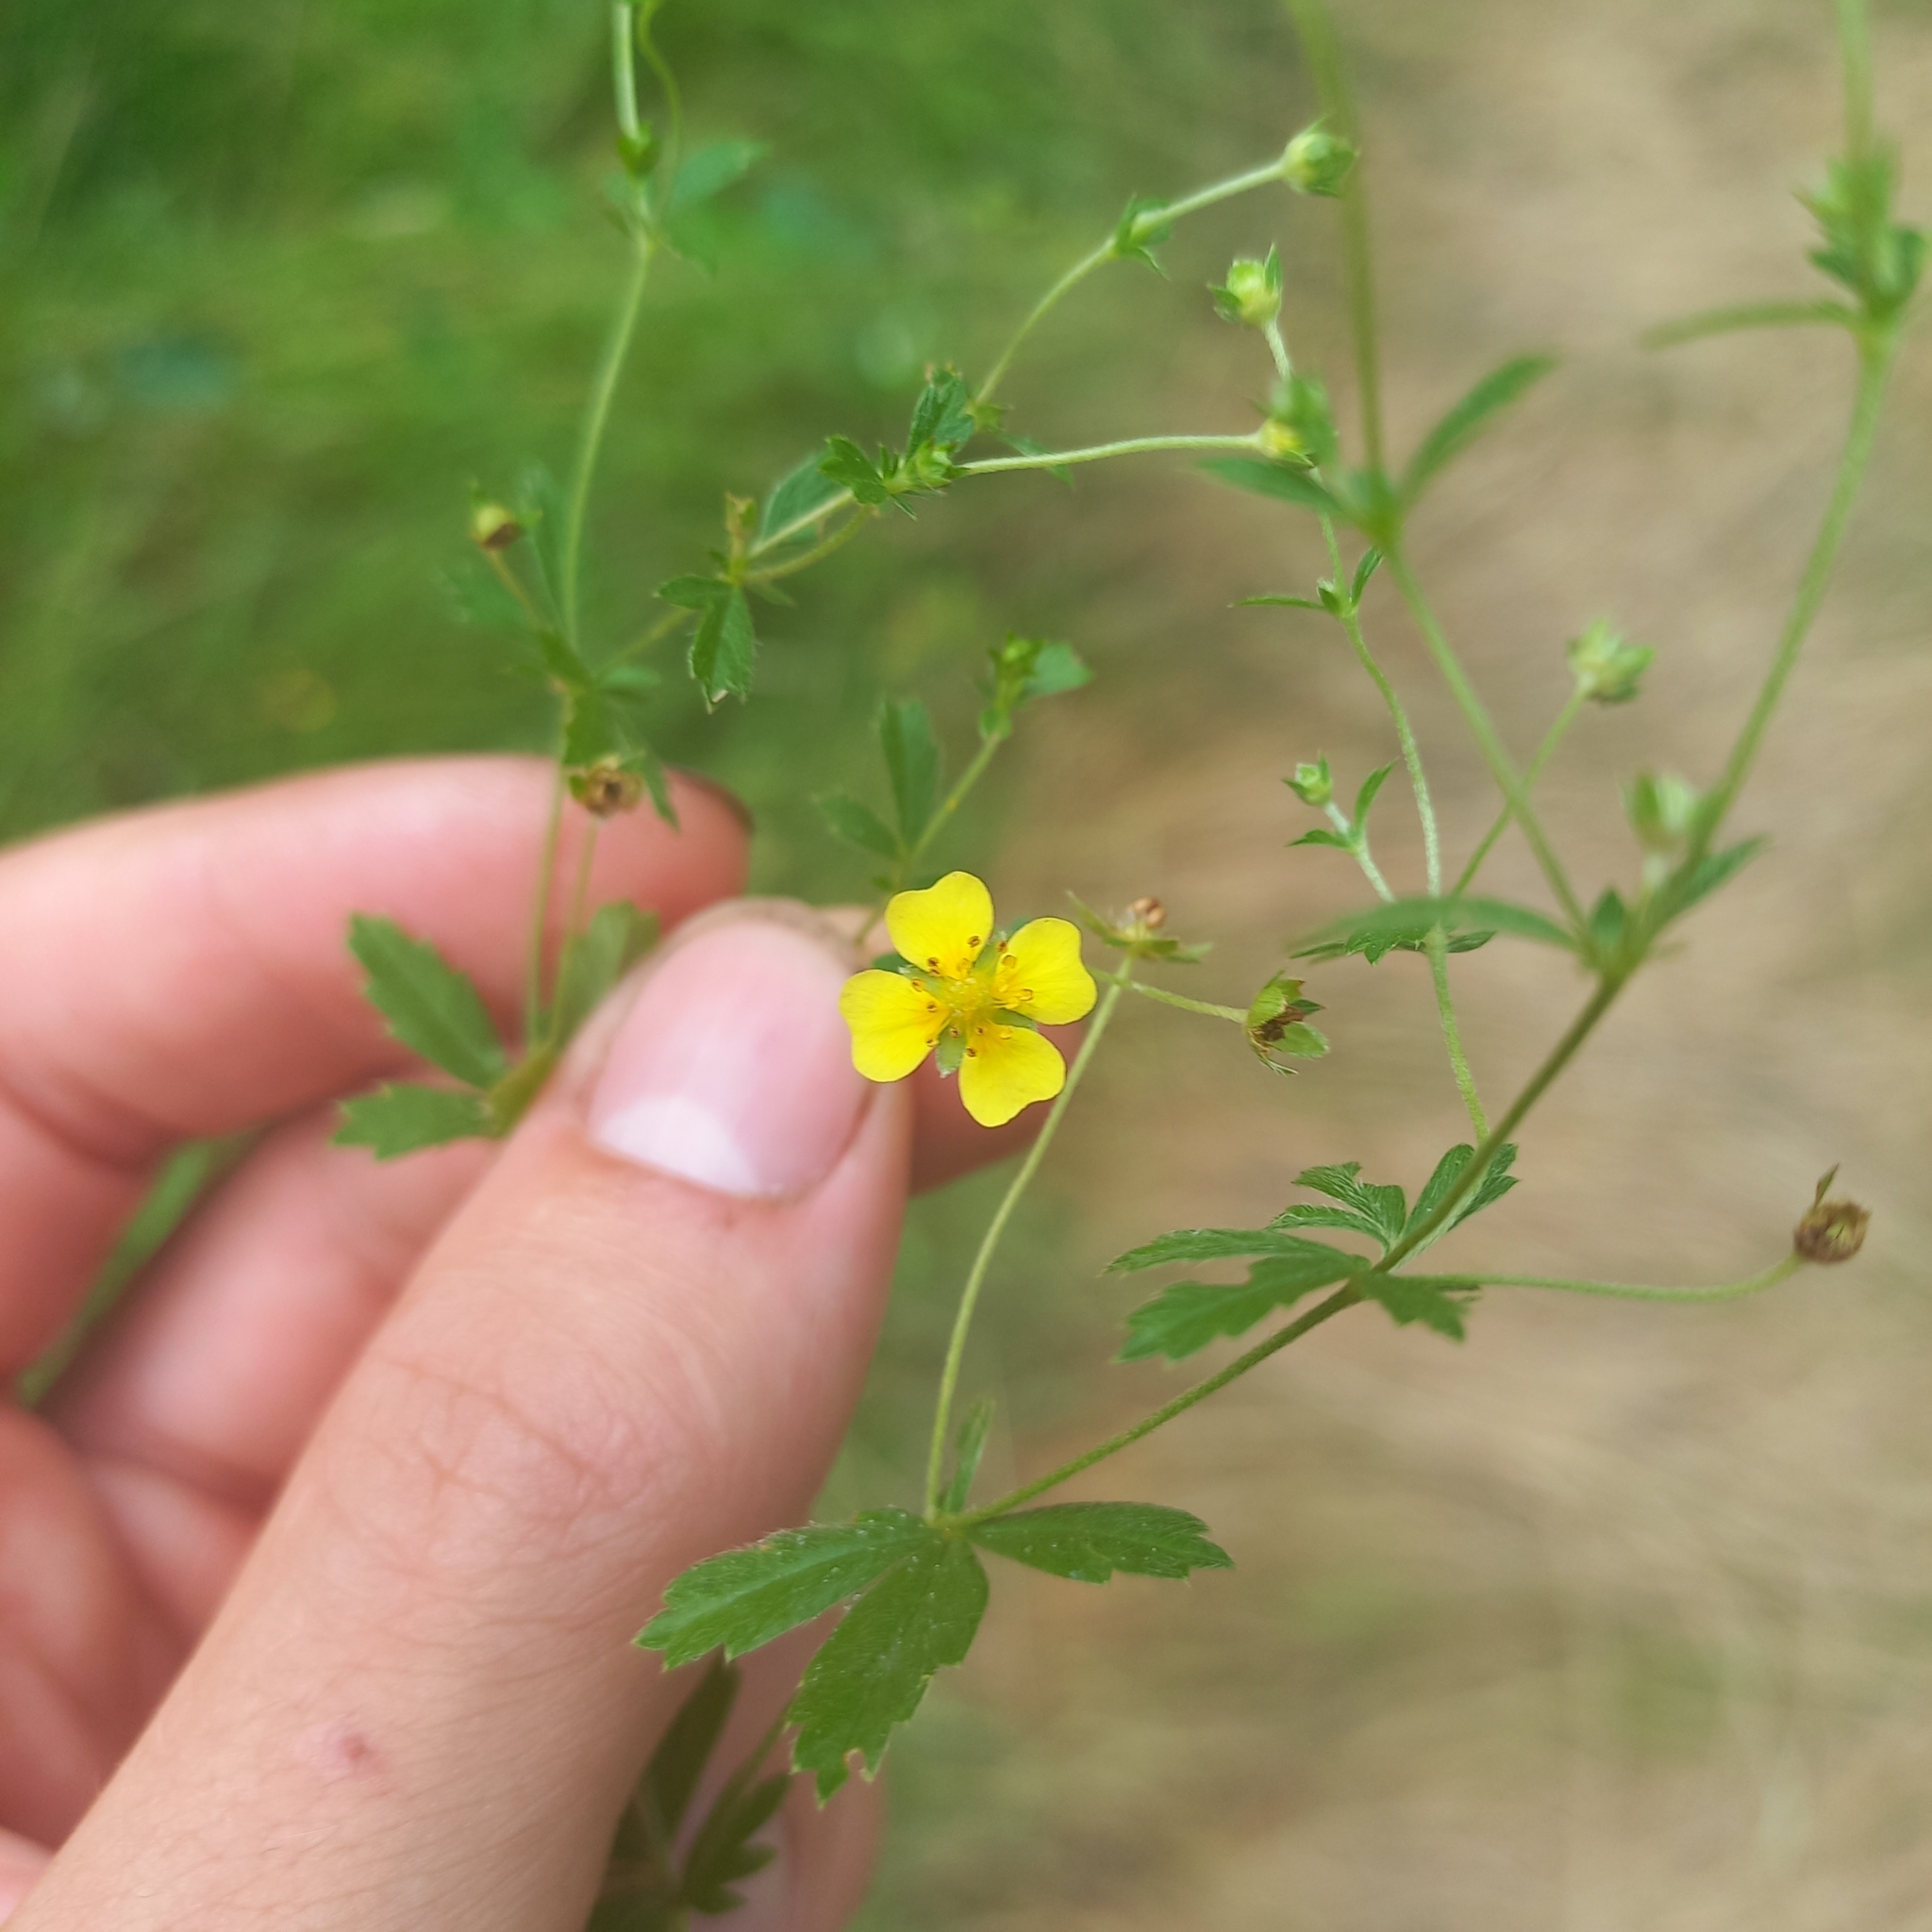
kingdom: Plantae
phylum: Tracheophyta
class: Magnoliopsida
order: Rosales
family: Rosaceae
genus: Potentilla
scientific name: Potentilla erecta
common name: Tormentil
